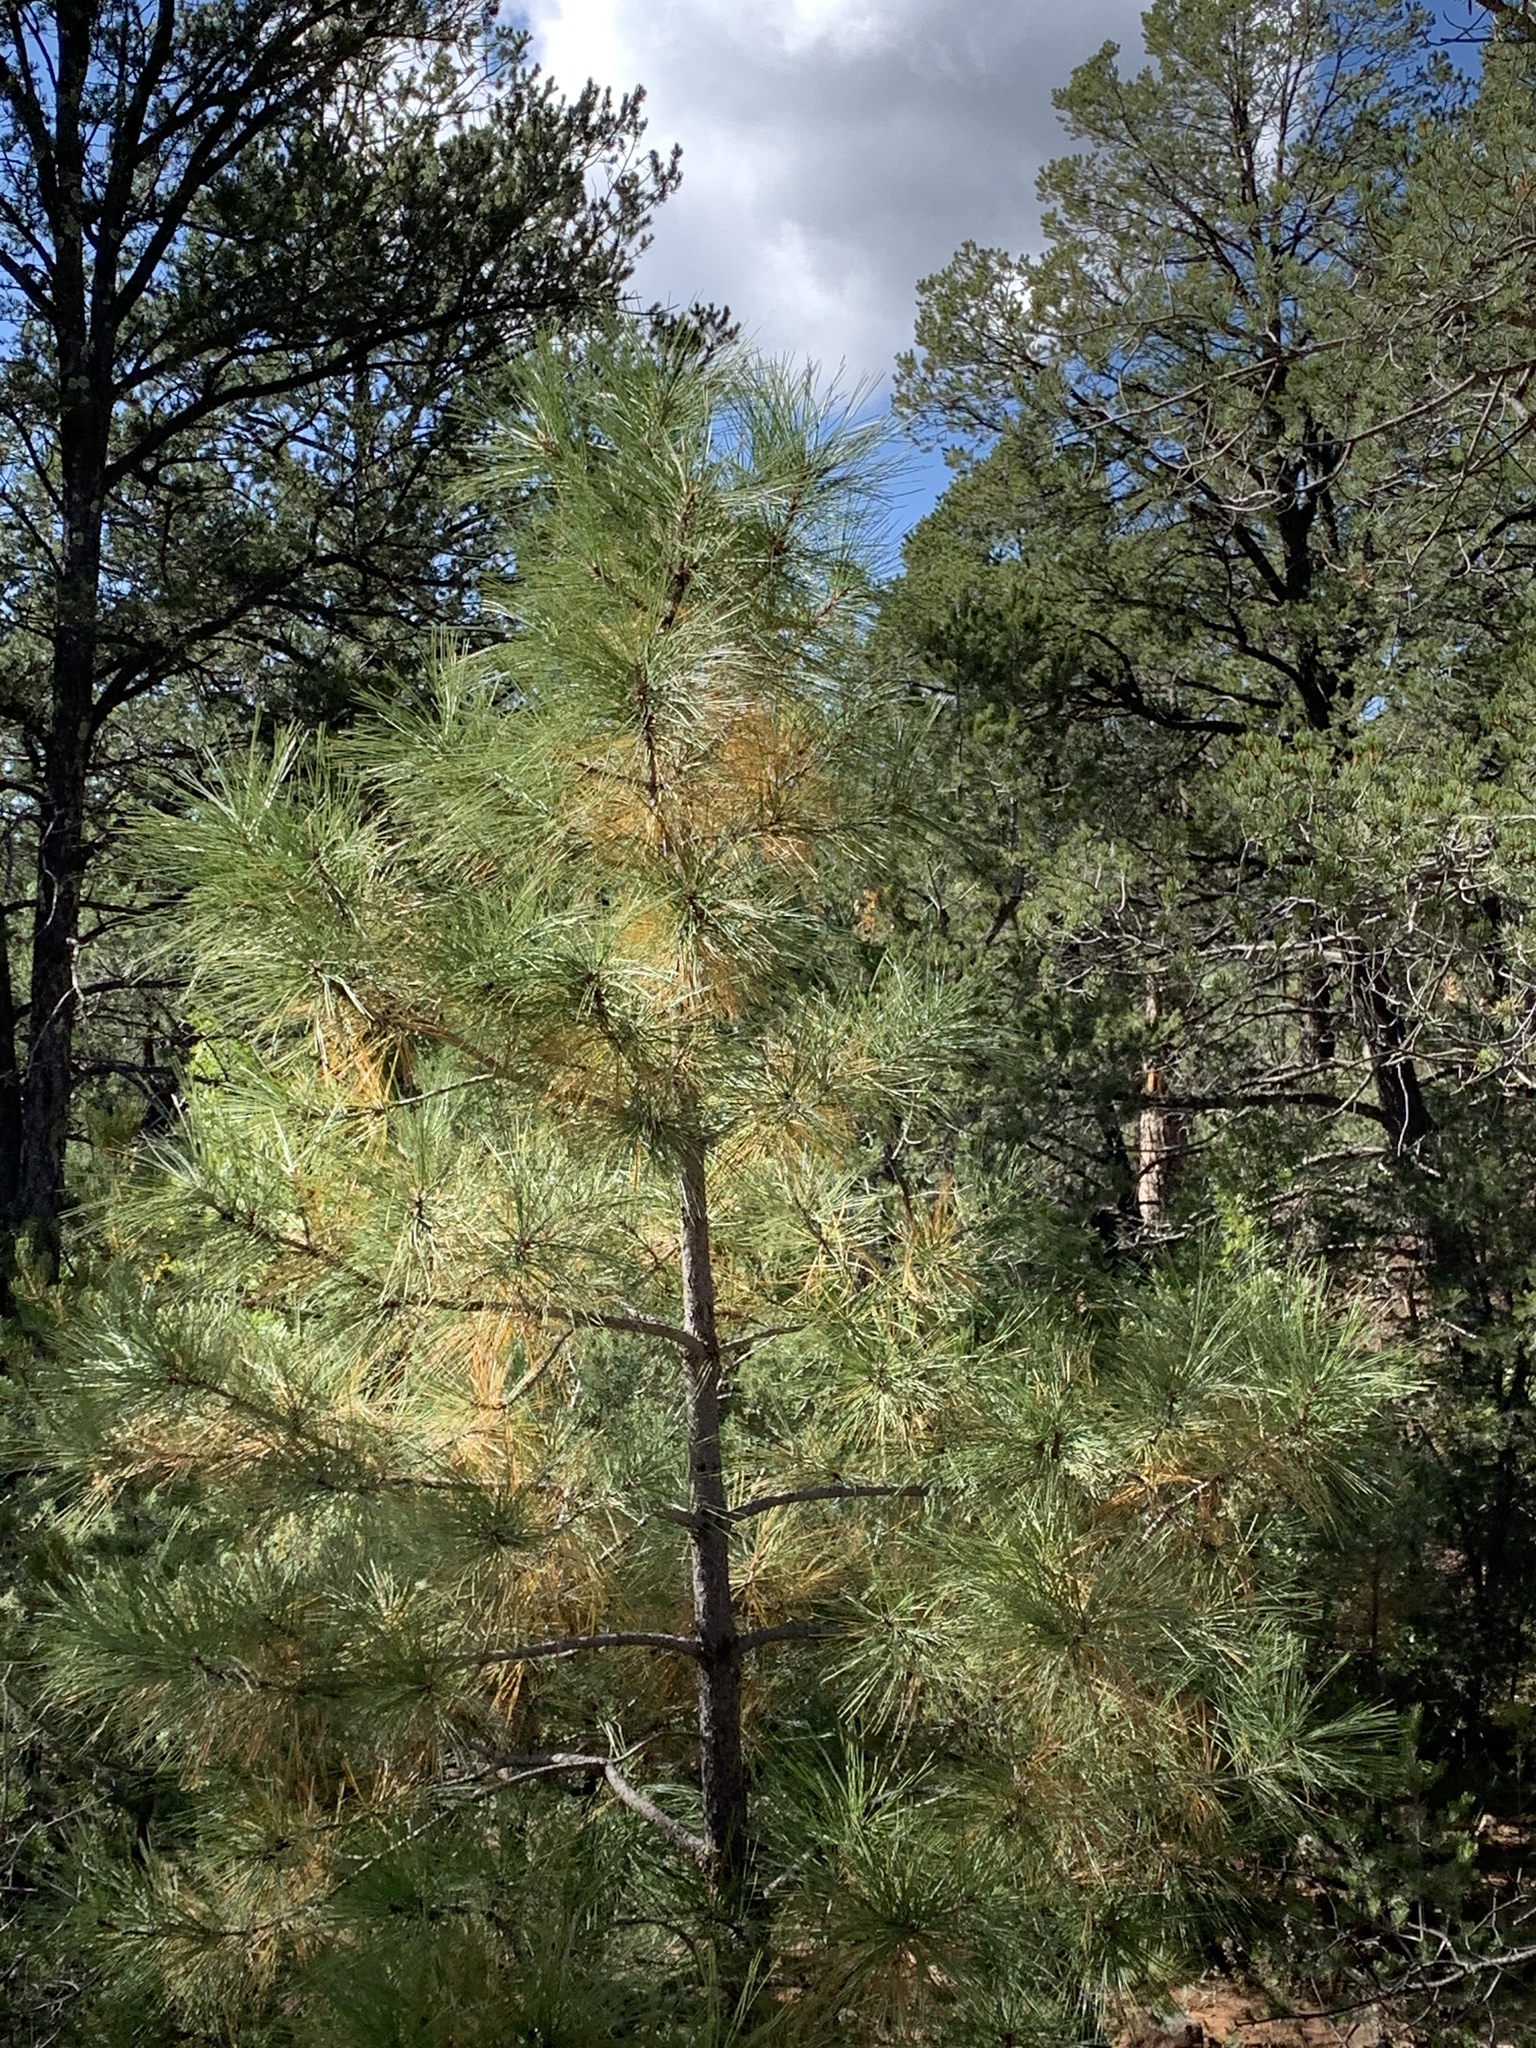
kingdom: Plantae
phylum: Tracheophyta
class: Pinopsida
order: Pinales
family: Pinaceae
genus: Pinus
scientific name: Pinus ponderosa
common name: Western yellow-pine
